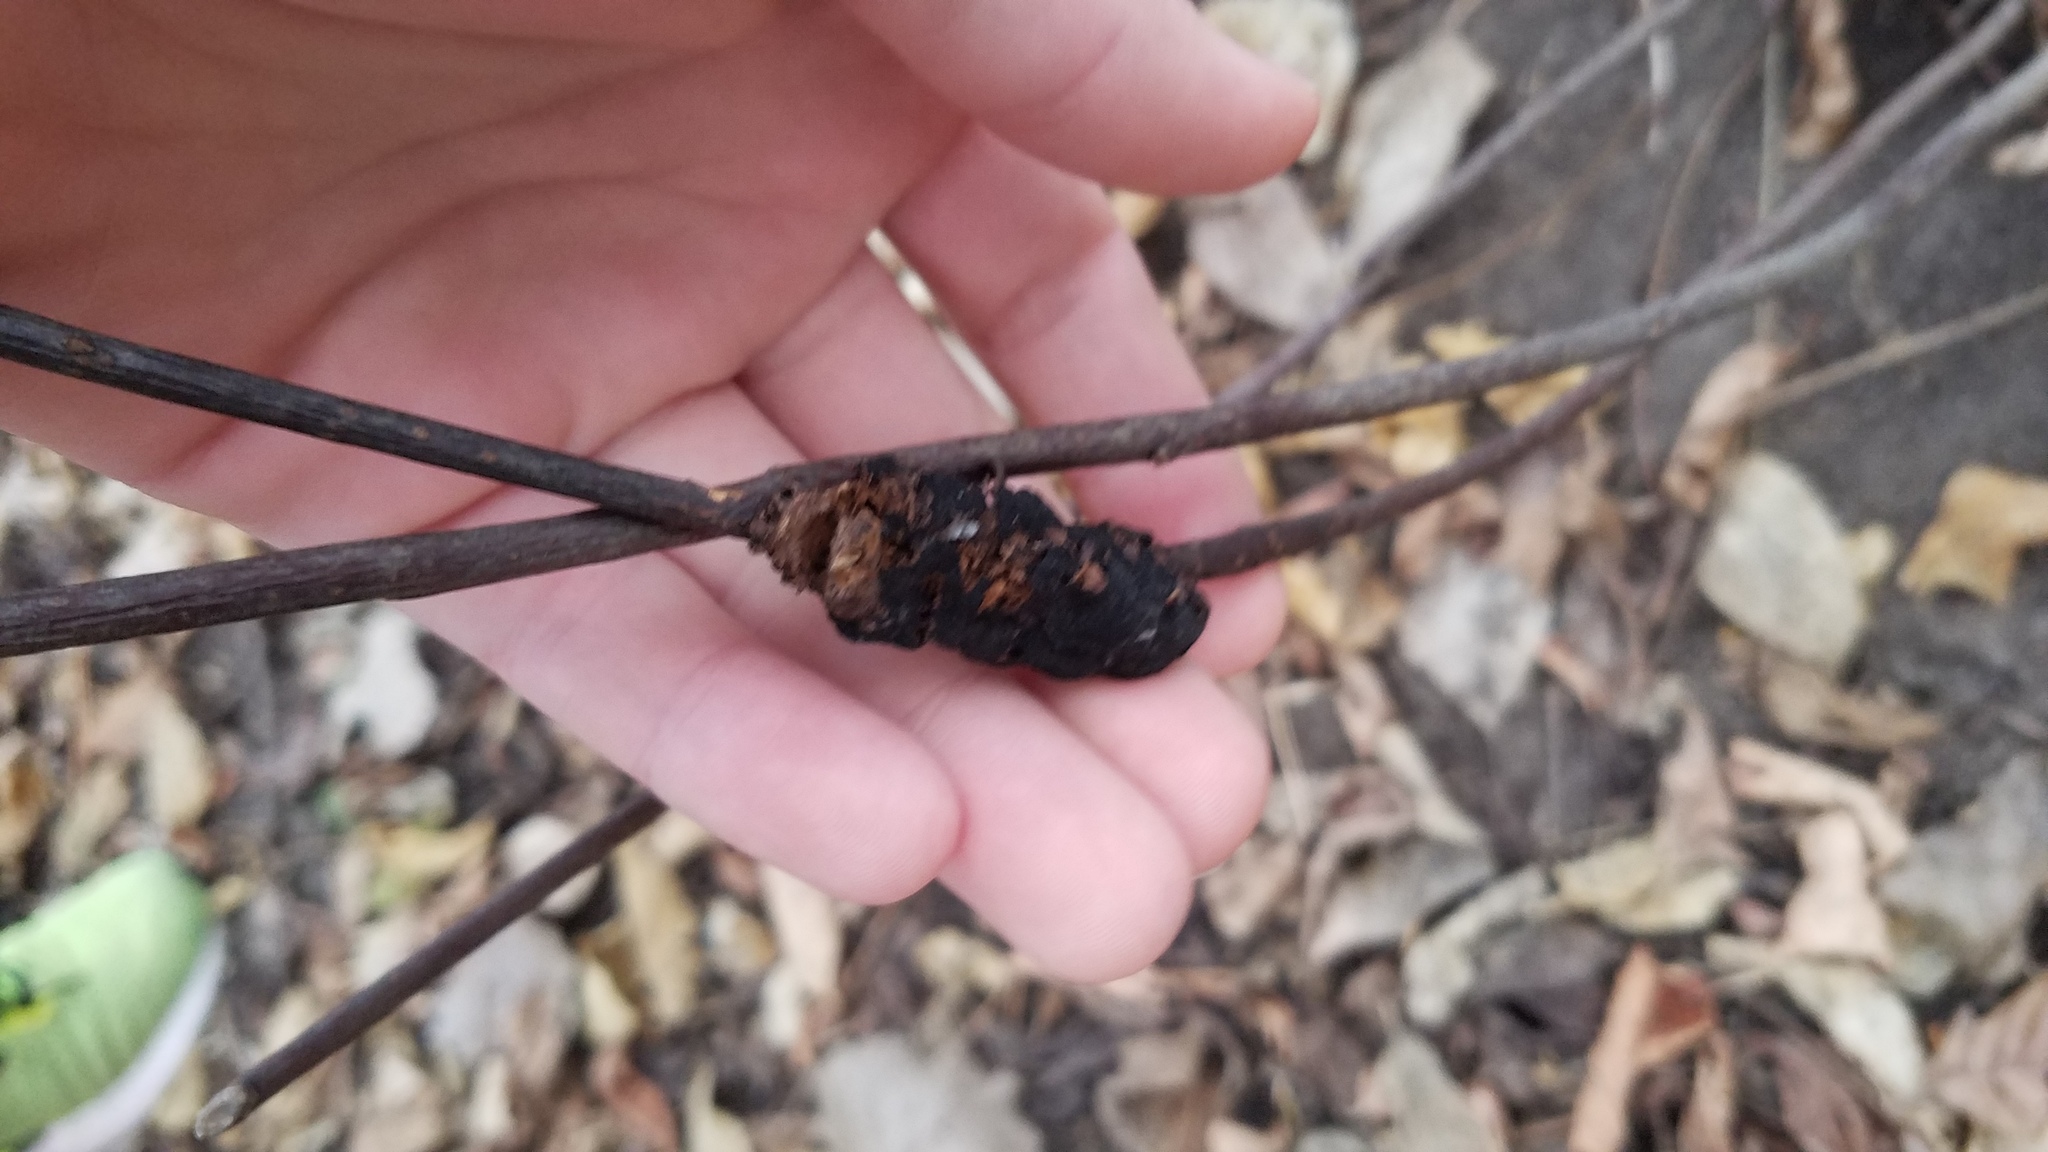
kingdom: Fungi
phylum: Ascomycota
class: Dothideomycetes
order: Venturiales
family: Venturiaceae
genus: Apiosporina
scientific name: Apiosporina morbosa
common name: Black knot
